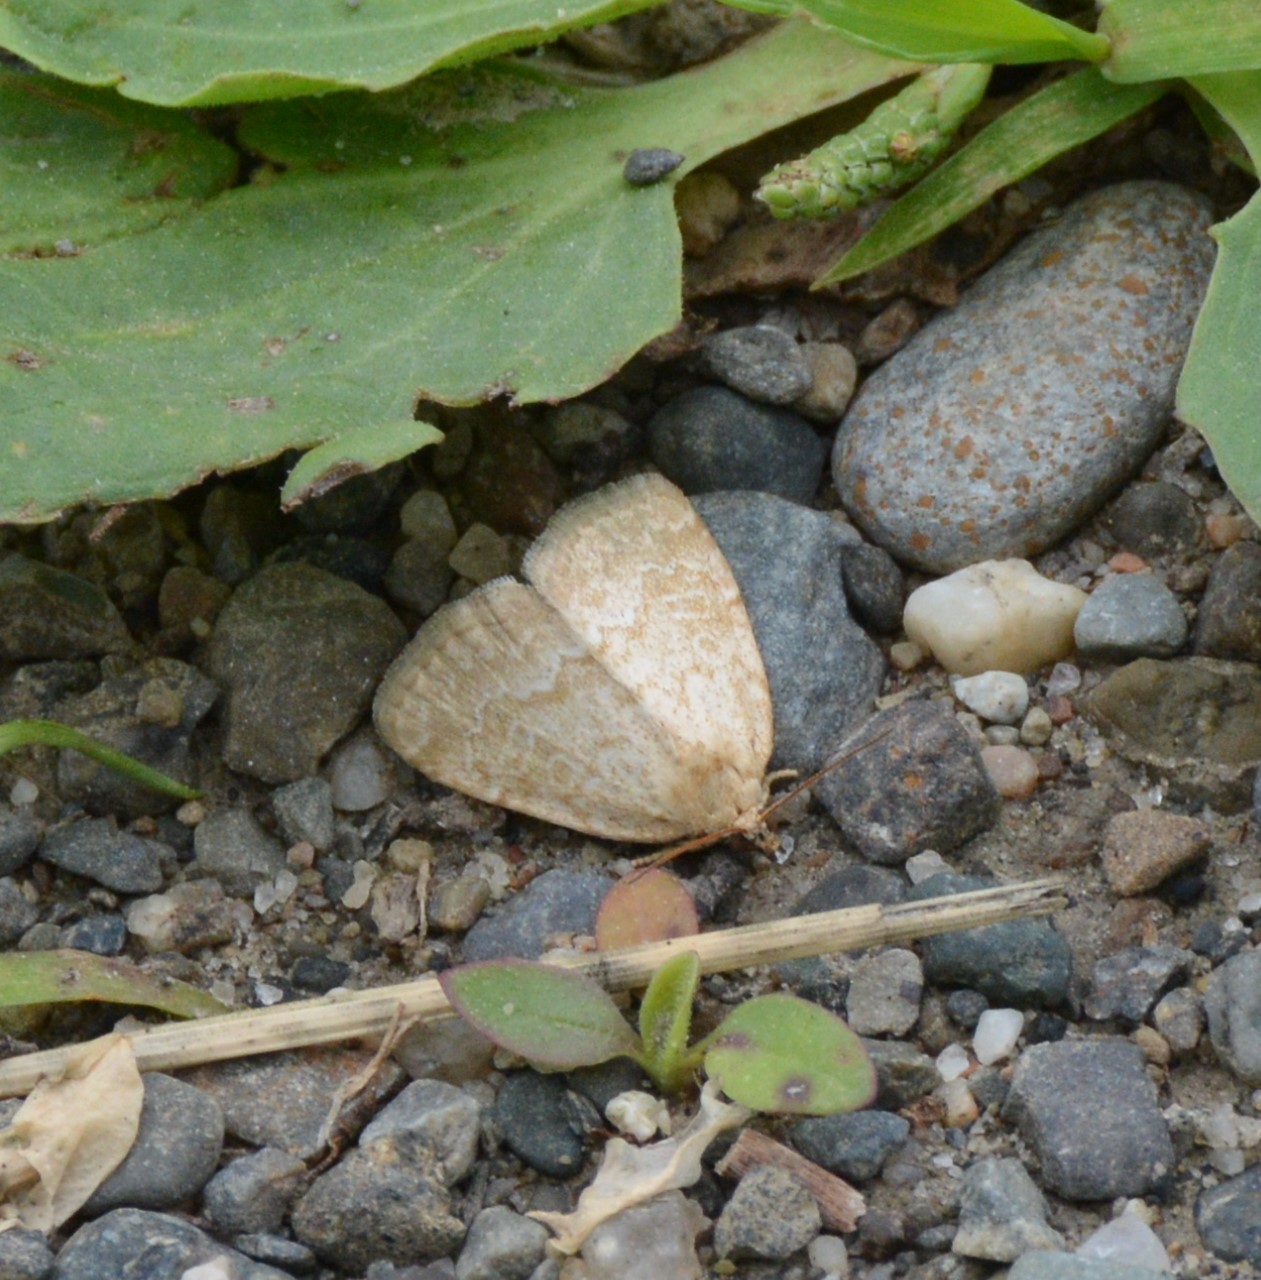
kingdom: Animalia
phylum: Arthropoda
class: Insecta
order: Lepidoptera
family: Noctuidae
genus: Protodeltote
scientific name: Protodeltote albidula
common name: Pale glyph
